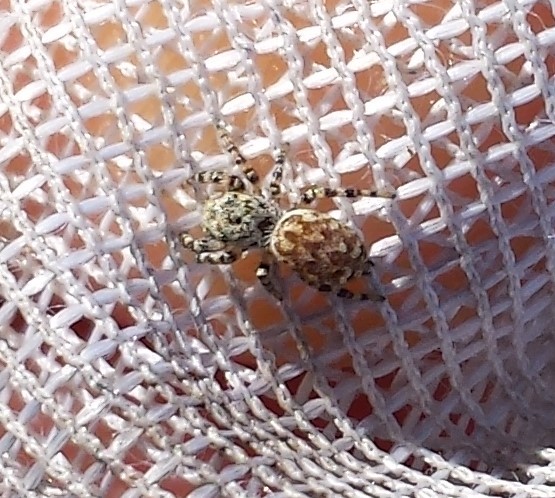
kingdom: Animalia
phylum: Arthropoda
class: Arachnida
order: Araneae
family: Salticidae
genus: Pelegrina
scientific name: Pelegrina galathea
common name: Jumping spiders
